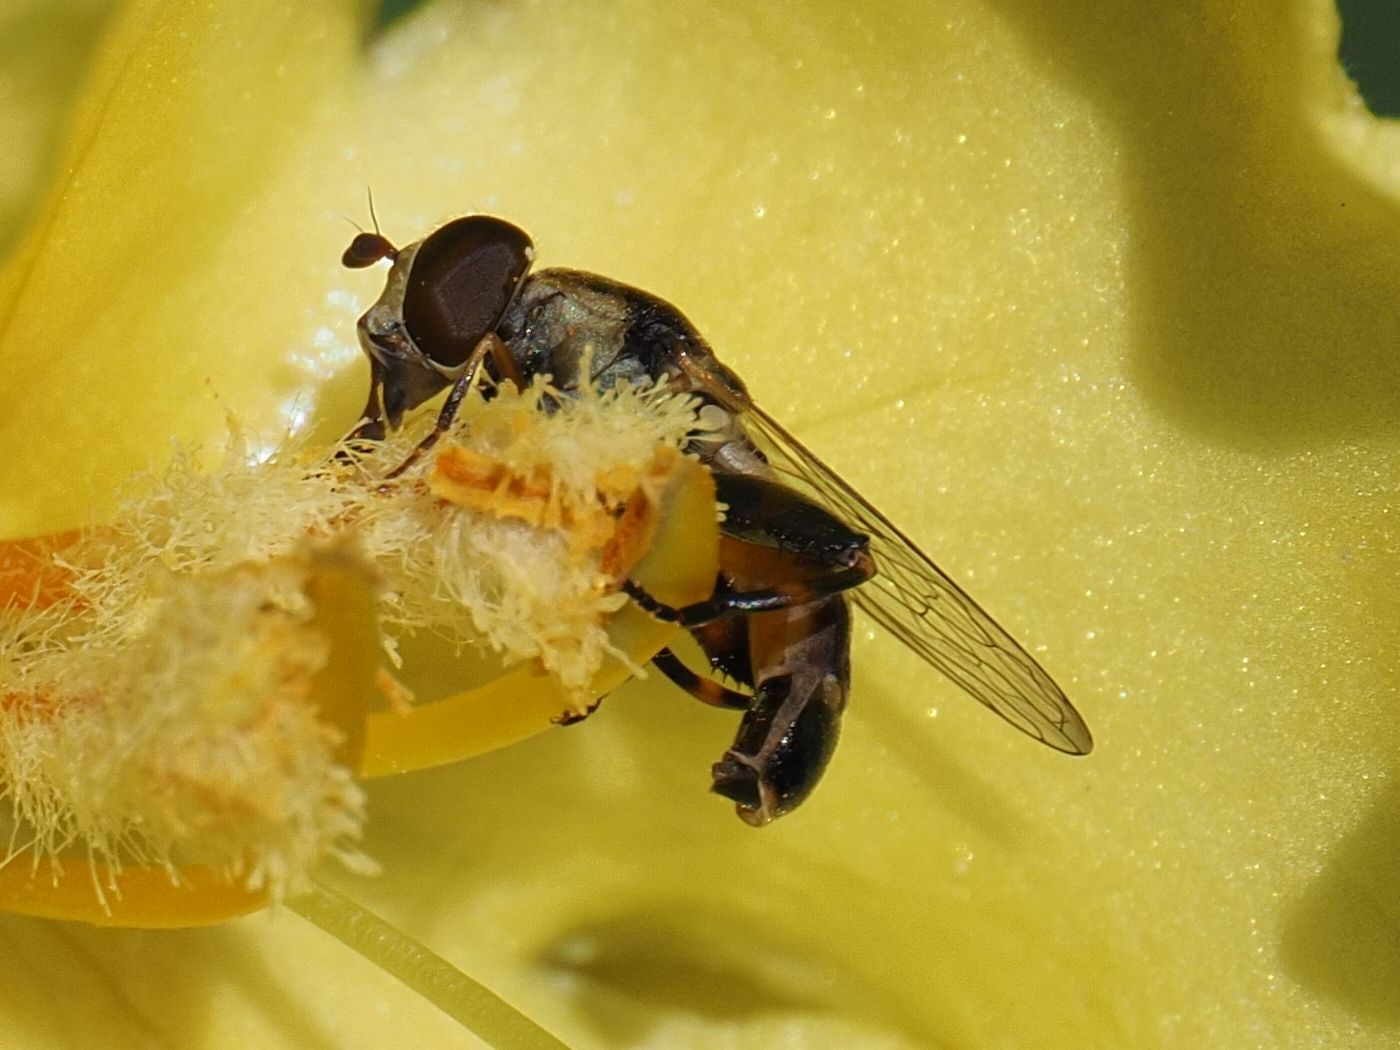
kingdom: Animalia
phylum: Arthropoda
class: Insecta
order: Diptera
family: Syrphidae
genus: Syritta
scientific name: Syritta pipiens
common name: Hover fly
